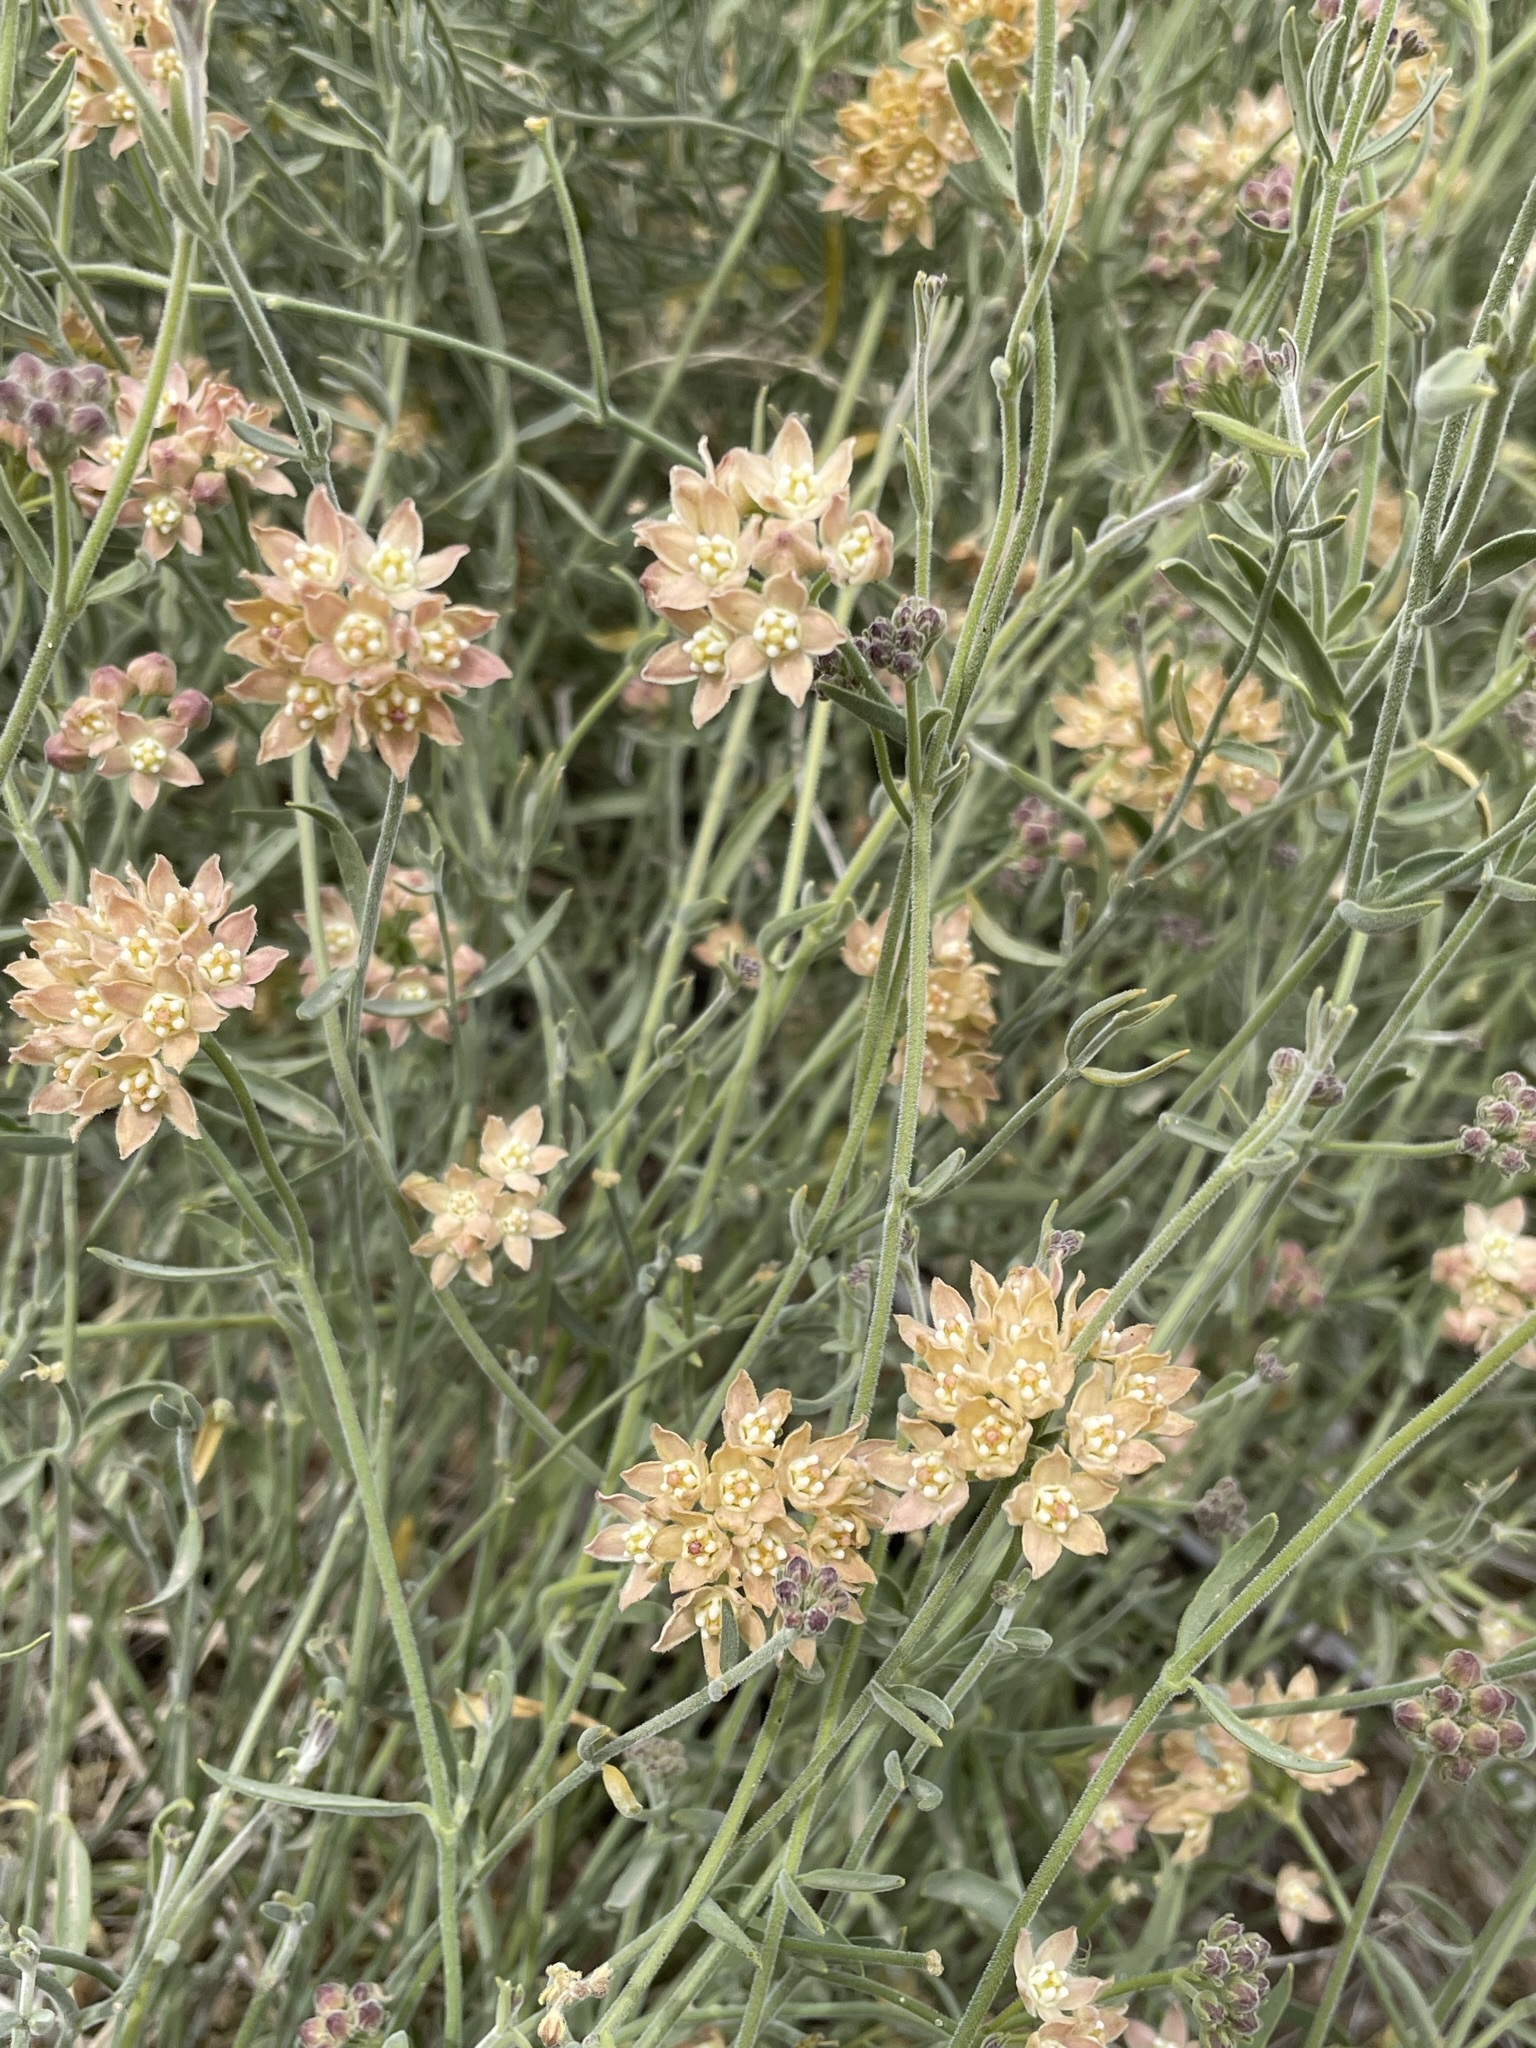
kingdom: Plantae
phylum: Tracheophyta
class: Magnoliopsida
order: Gentianales
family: Apocynaceae
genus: Funastrum
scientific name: Funastrum hirtellum
